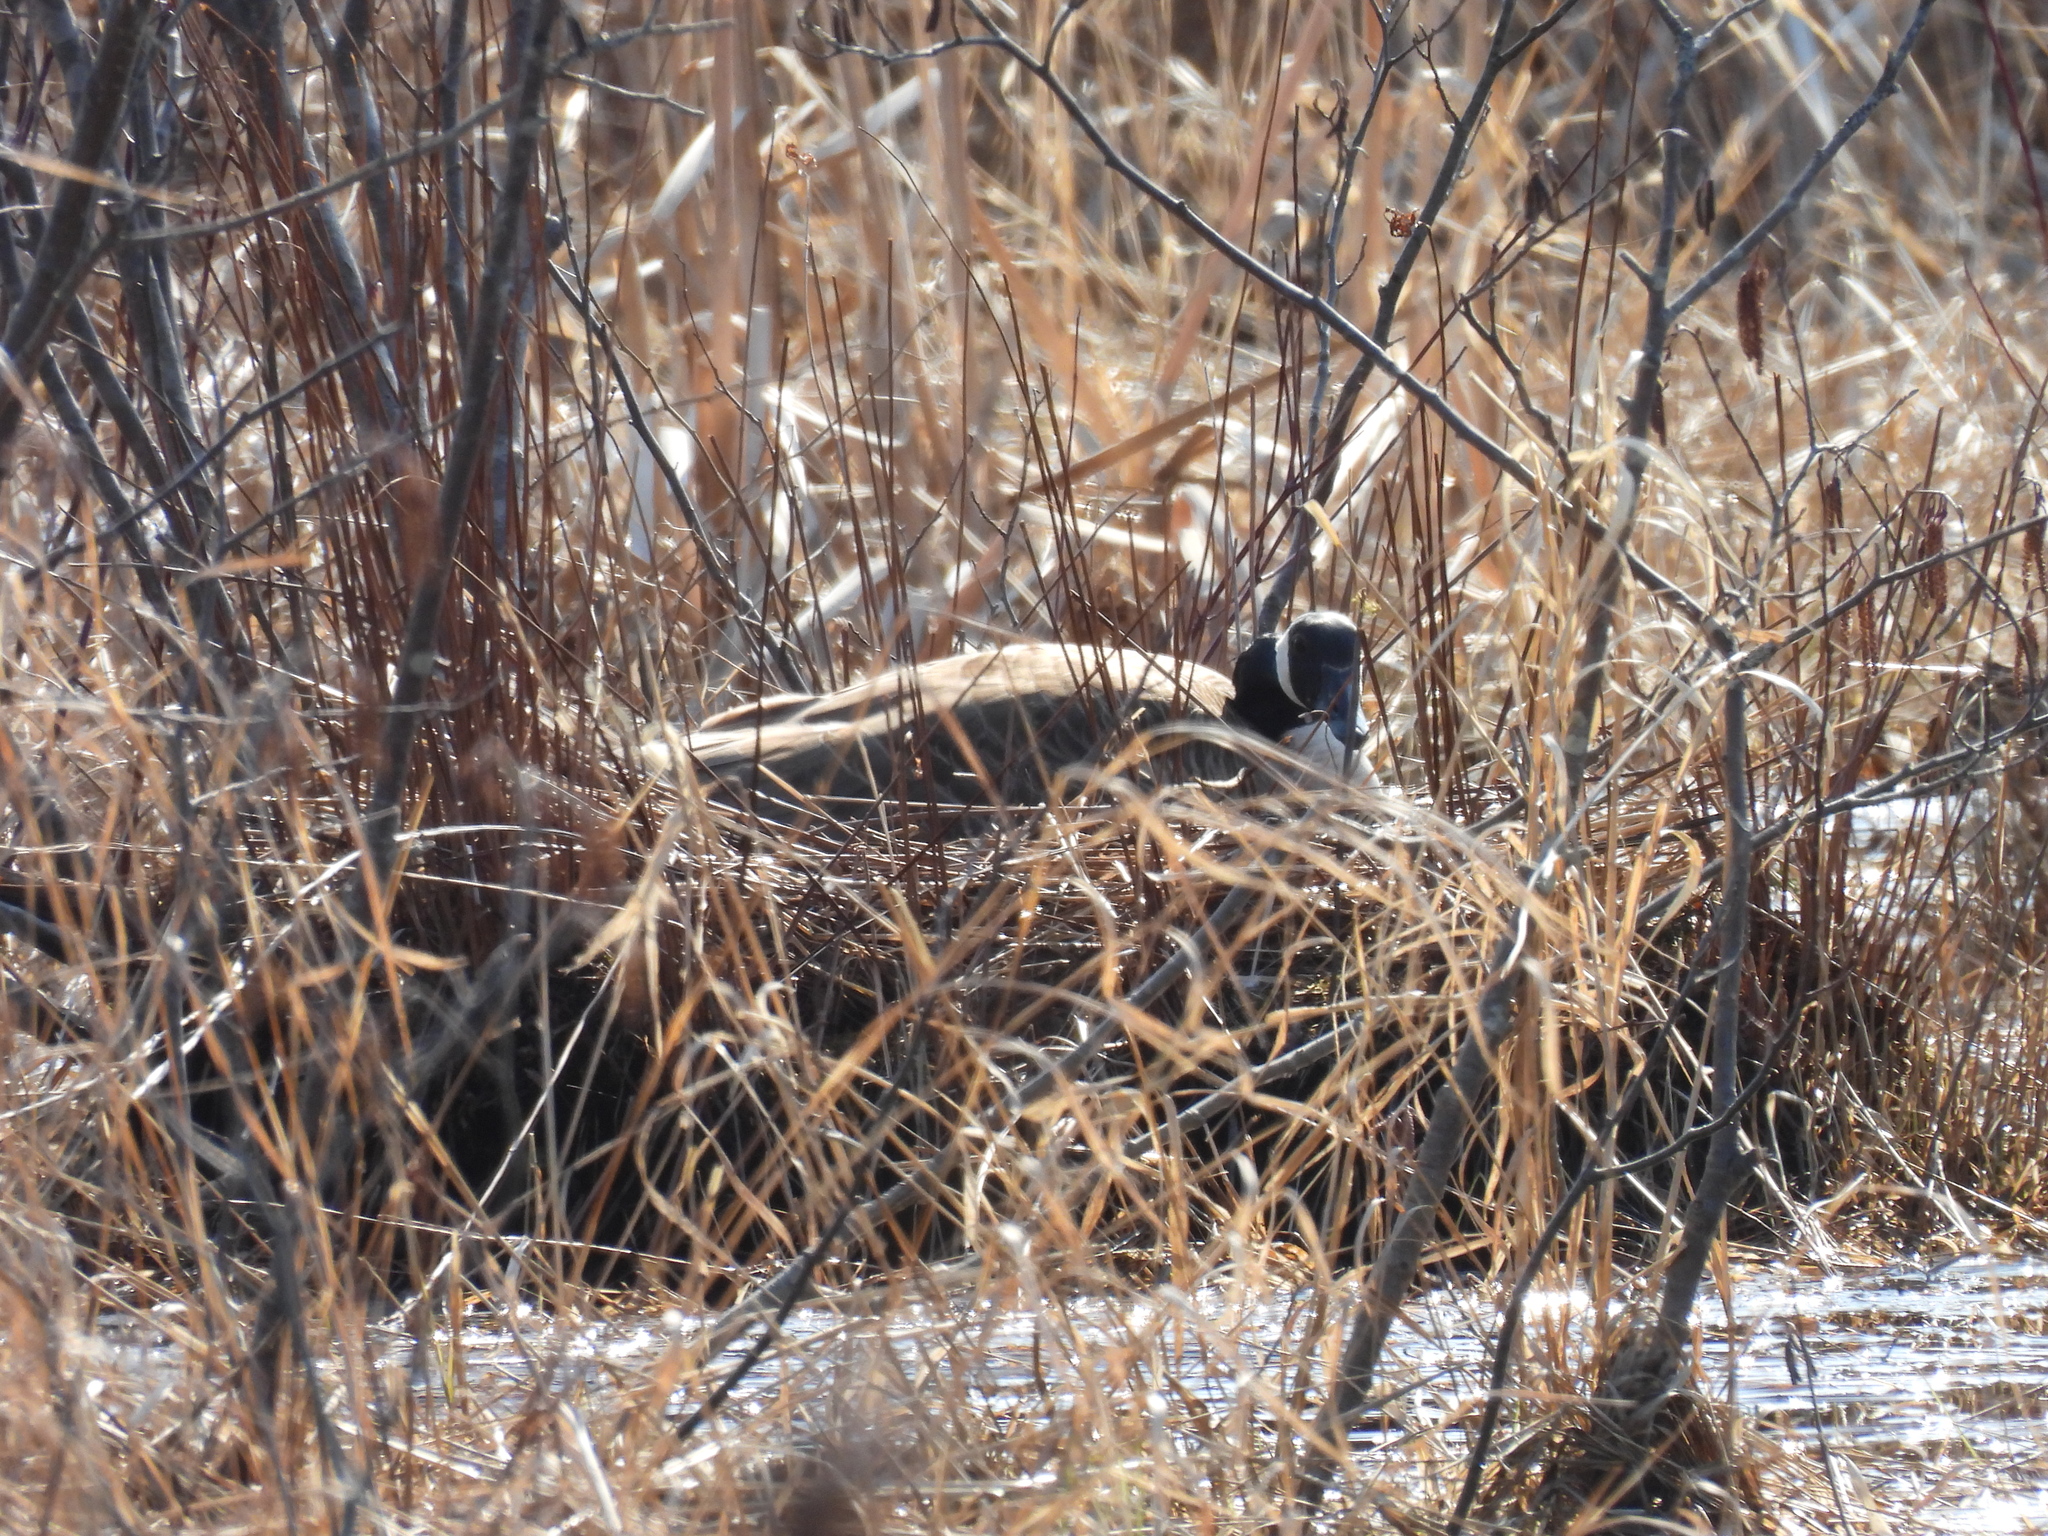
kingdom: Animalia
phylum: Chordata
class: Aves
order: Anseriformes
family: Anatidae
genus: Branta
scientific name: Branta canadensis
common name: Canada goose
